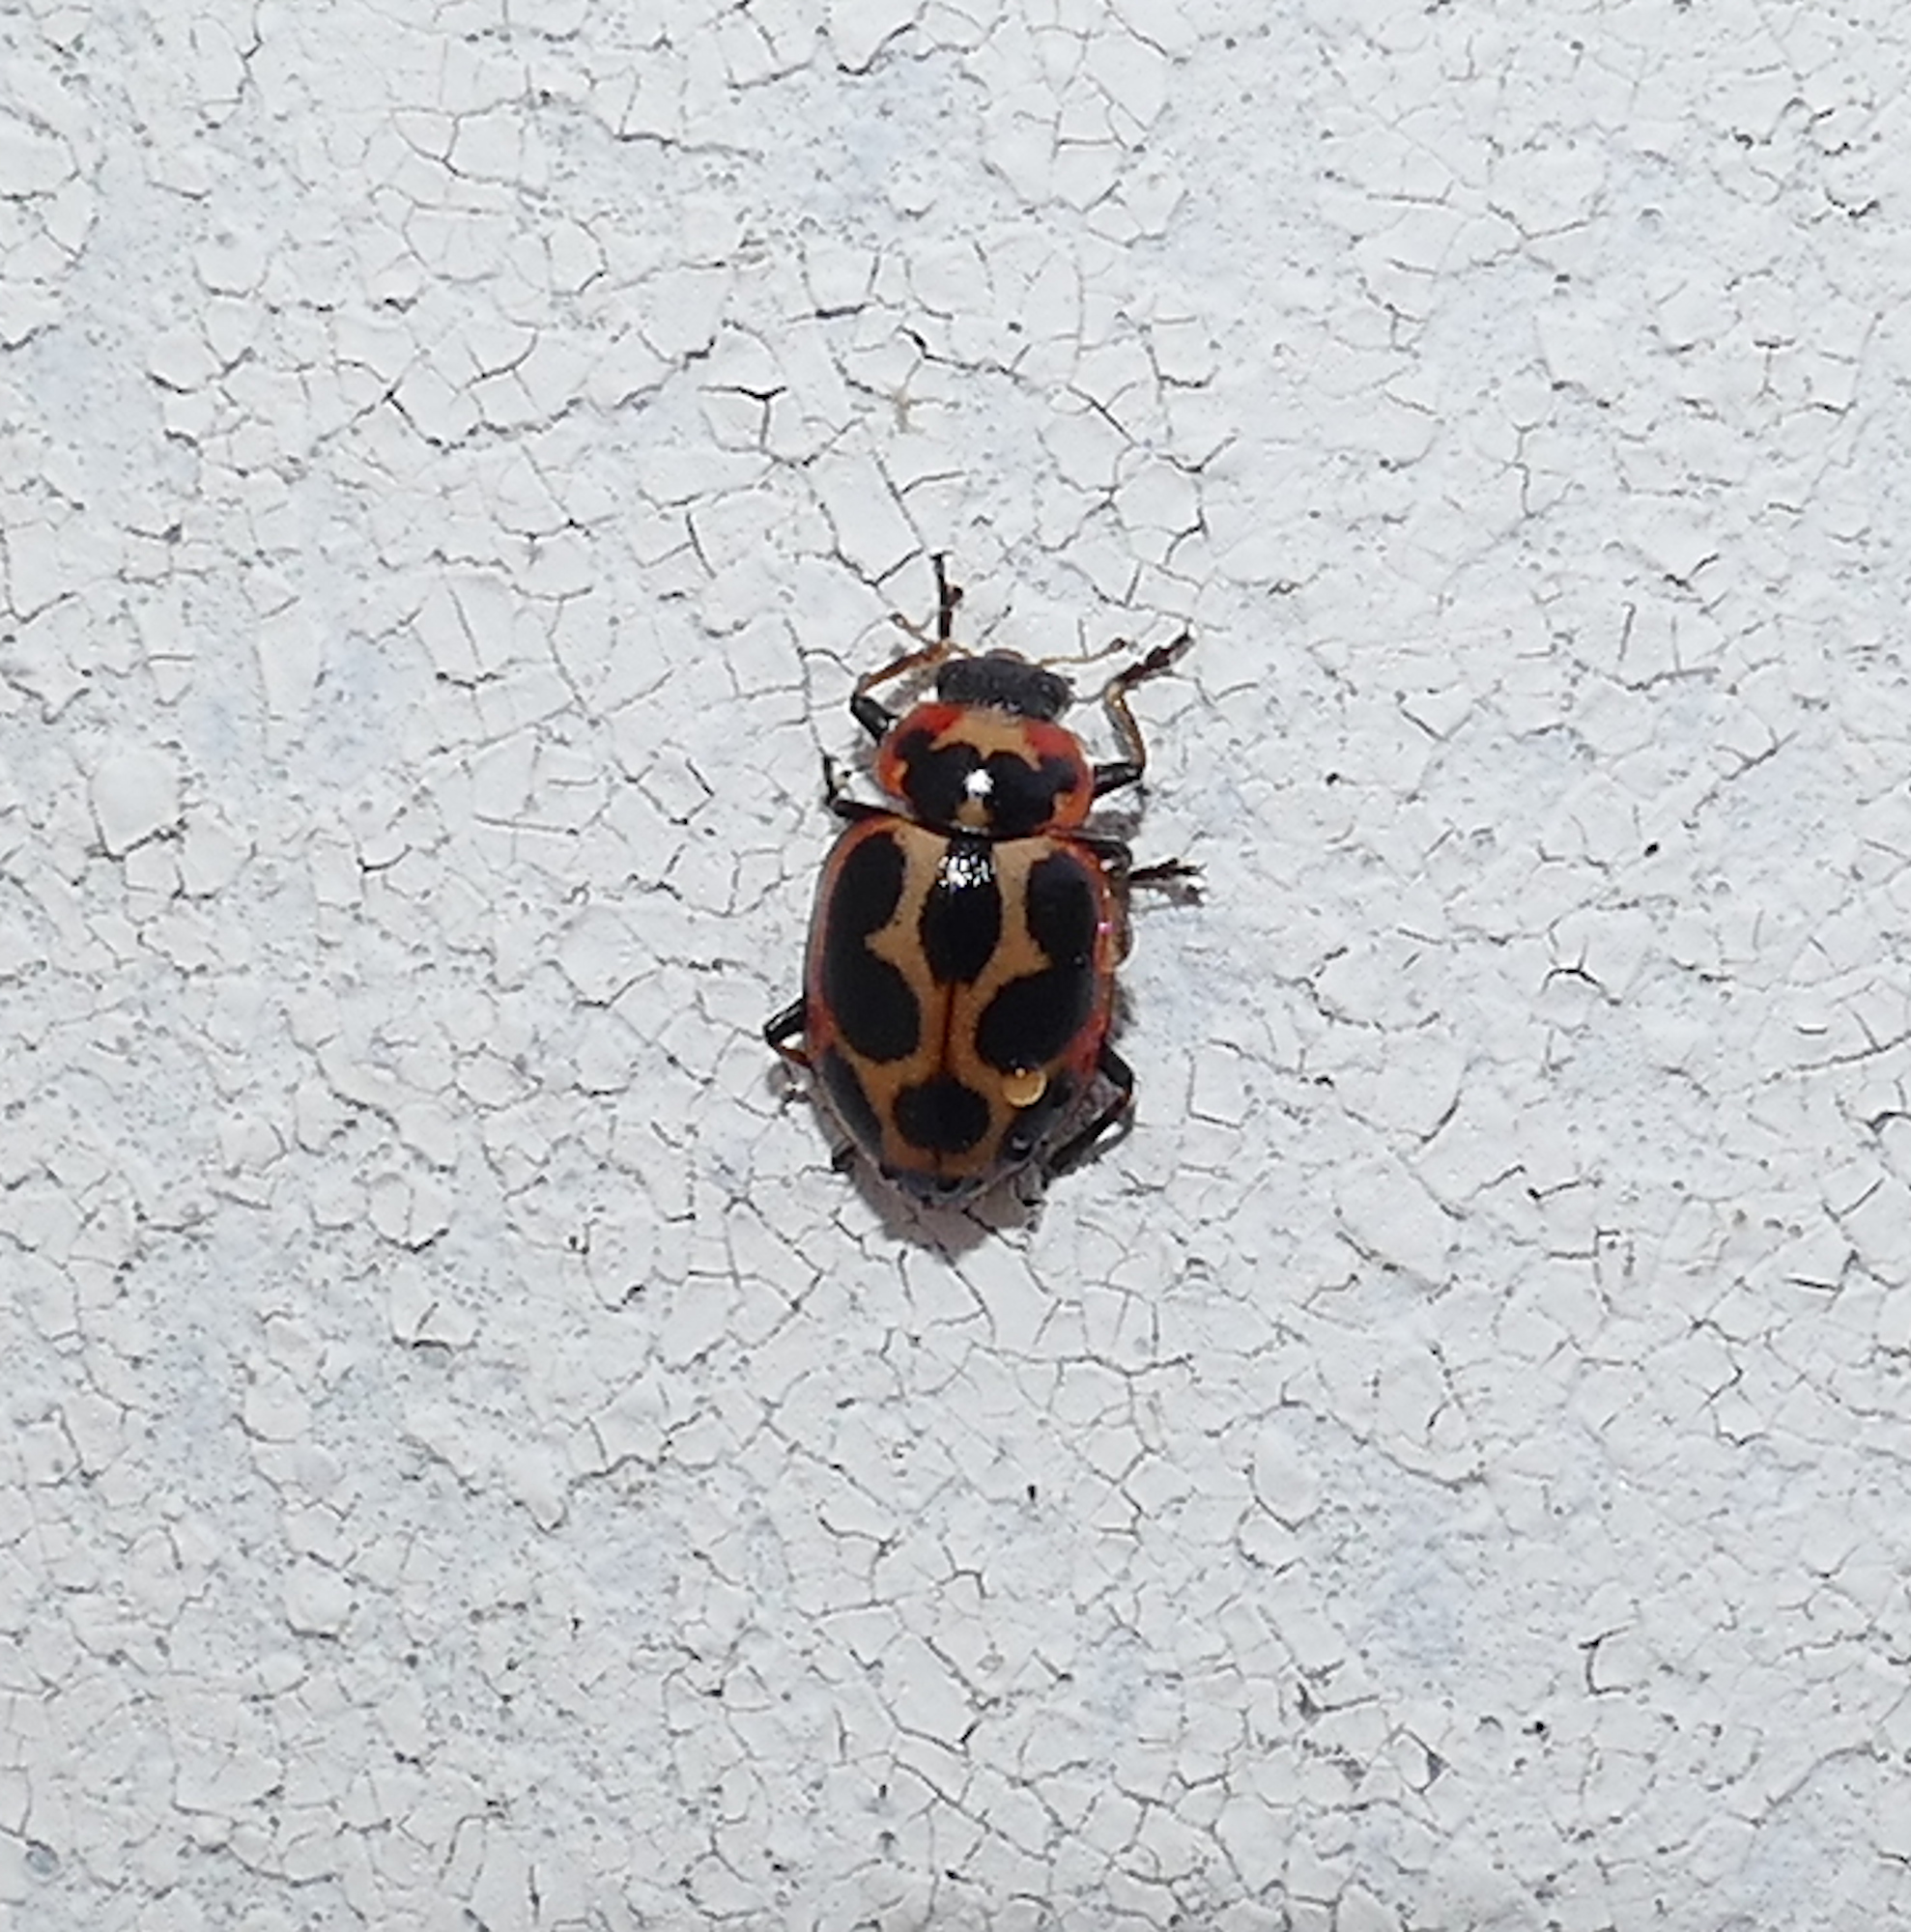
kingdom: Animalia
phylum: Arthropoda
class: Insecta
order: Coleoptera
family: Coccinellidae
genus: Naemia
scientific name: Naemia seriata
